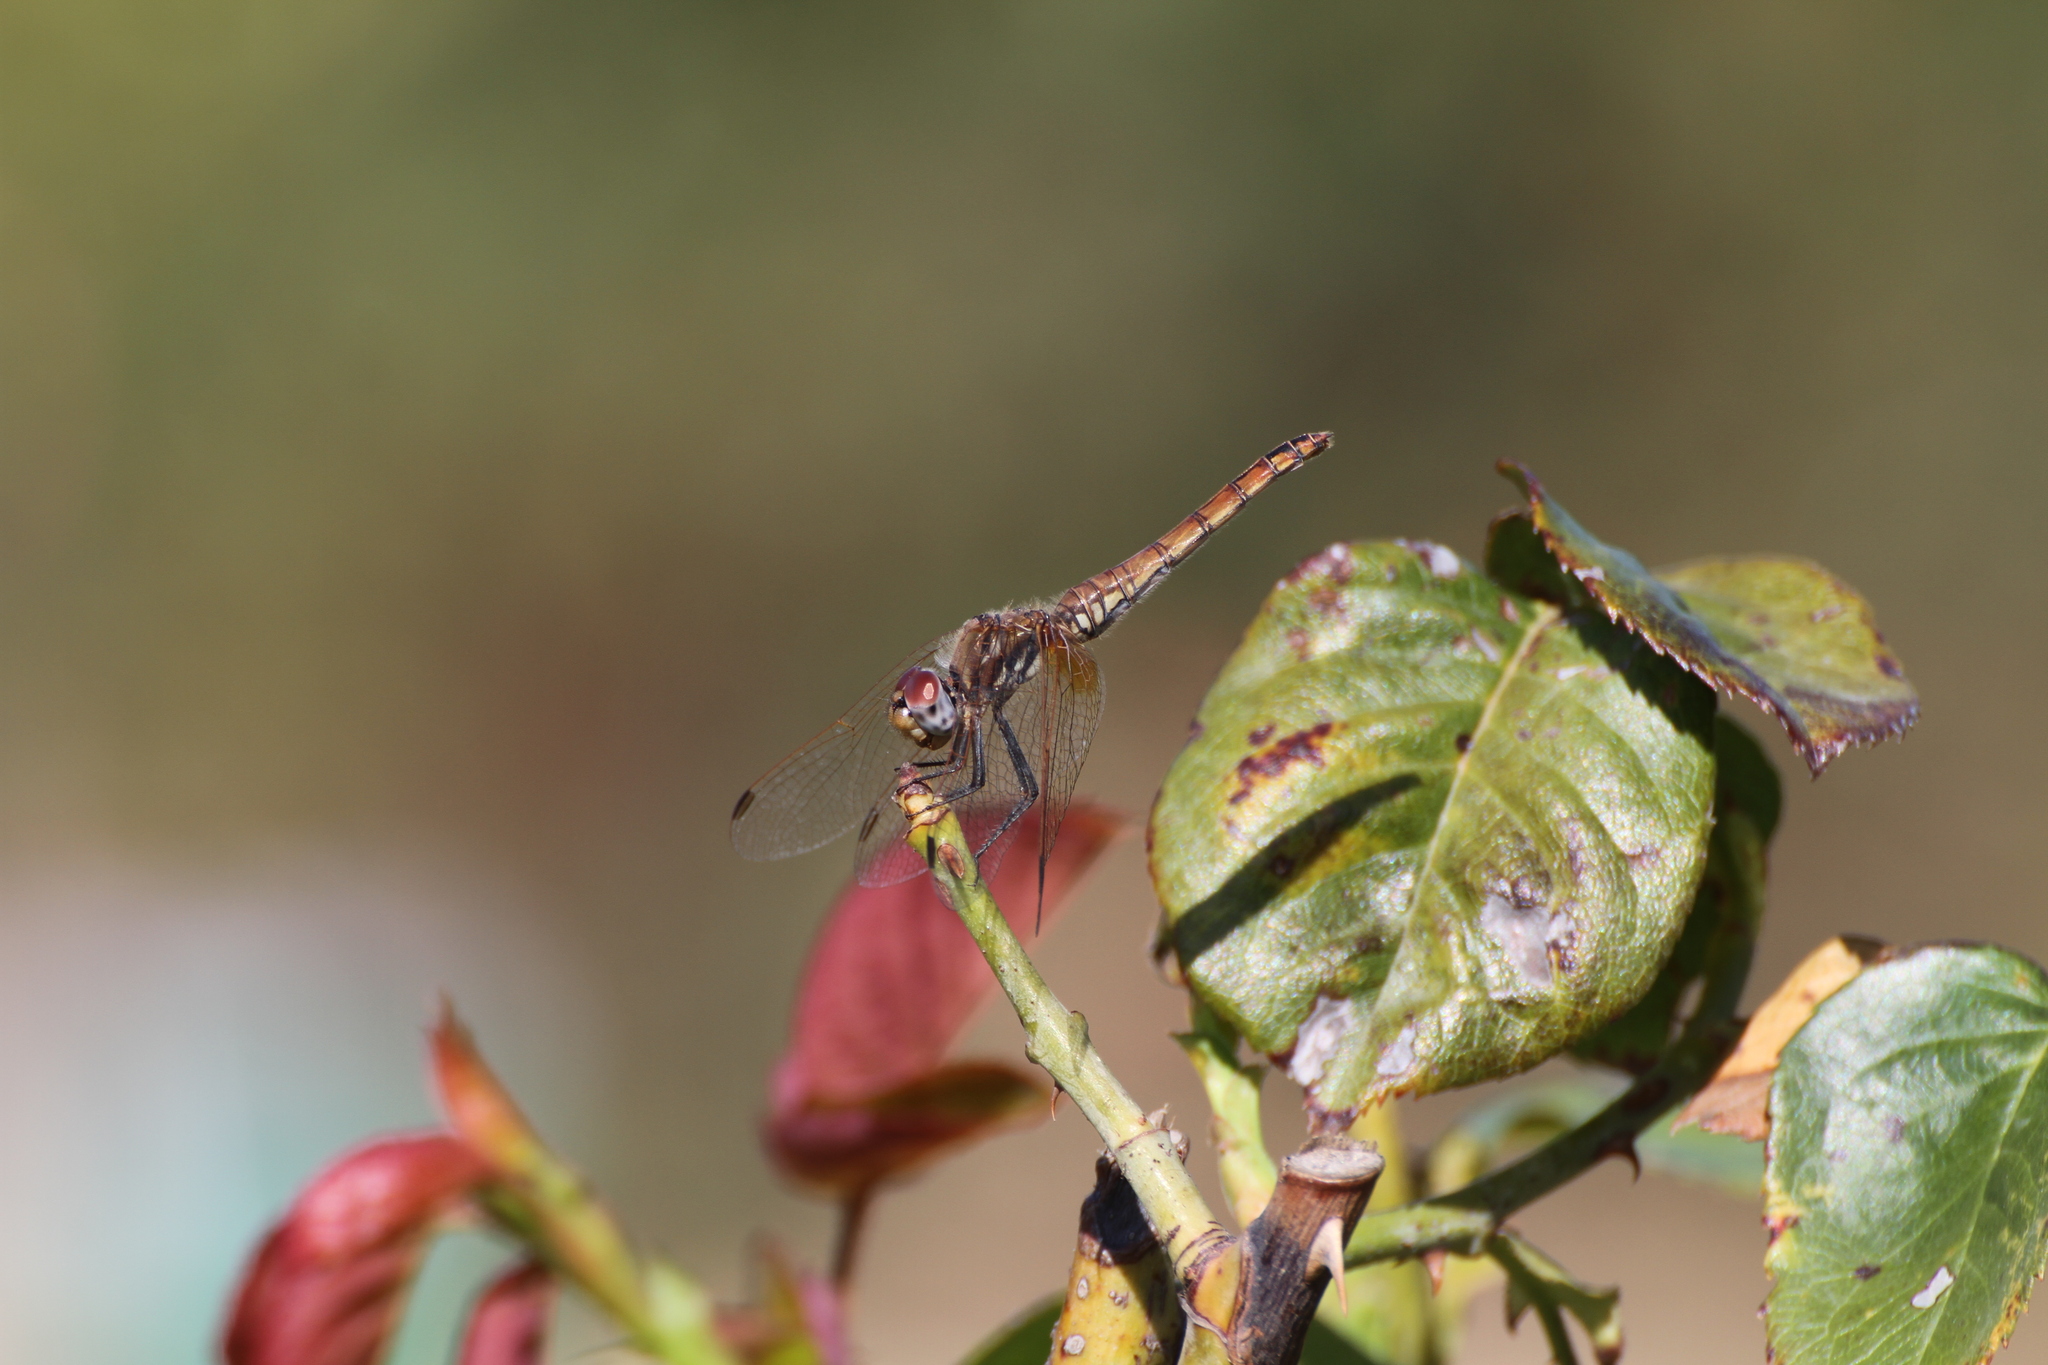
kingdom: Animalia
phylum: Arthropoda
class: Insecta
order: Odonata
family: Libellulidae
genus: Trithemis
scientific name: Trithemis annulata
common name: Violet dropwing
